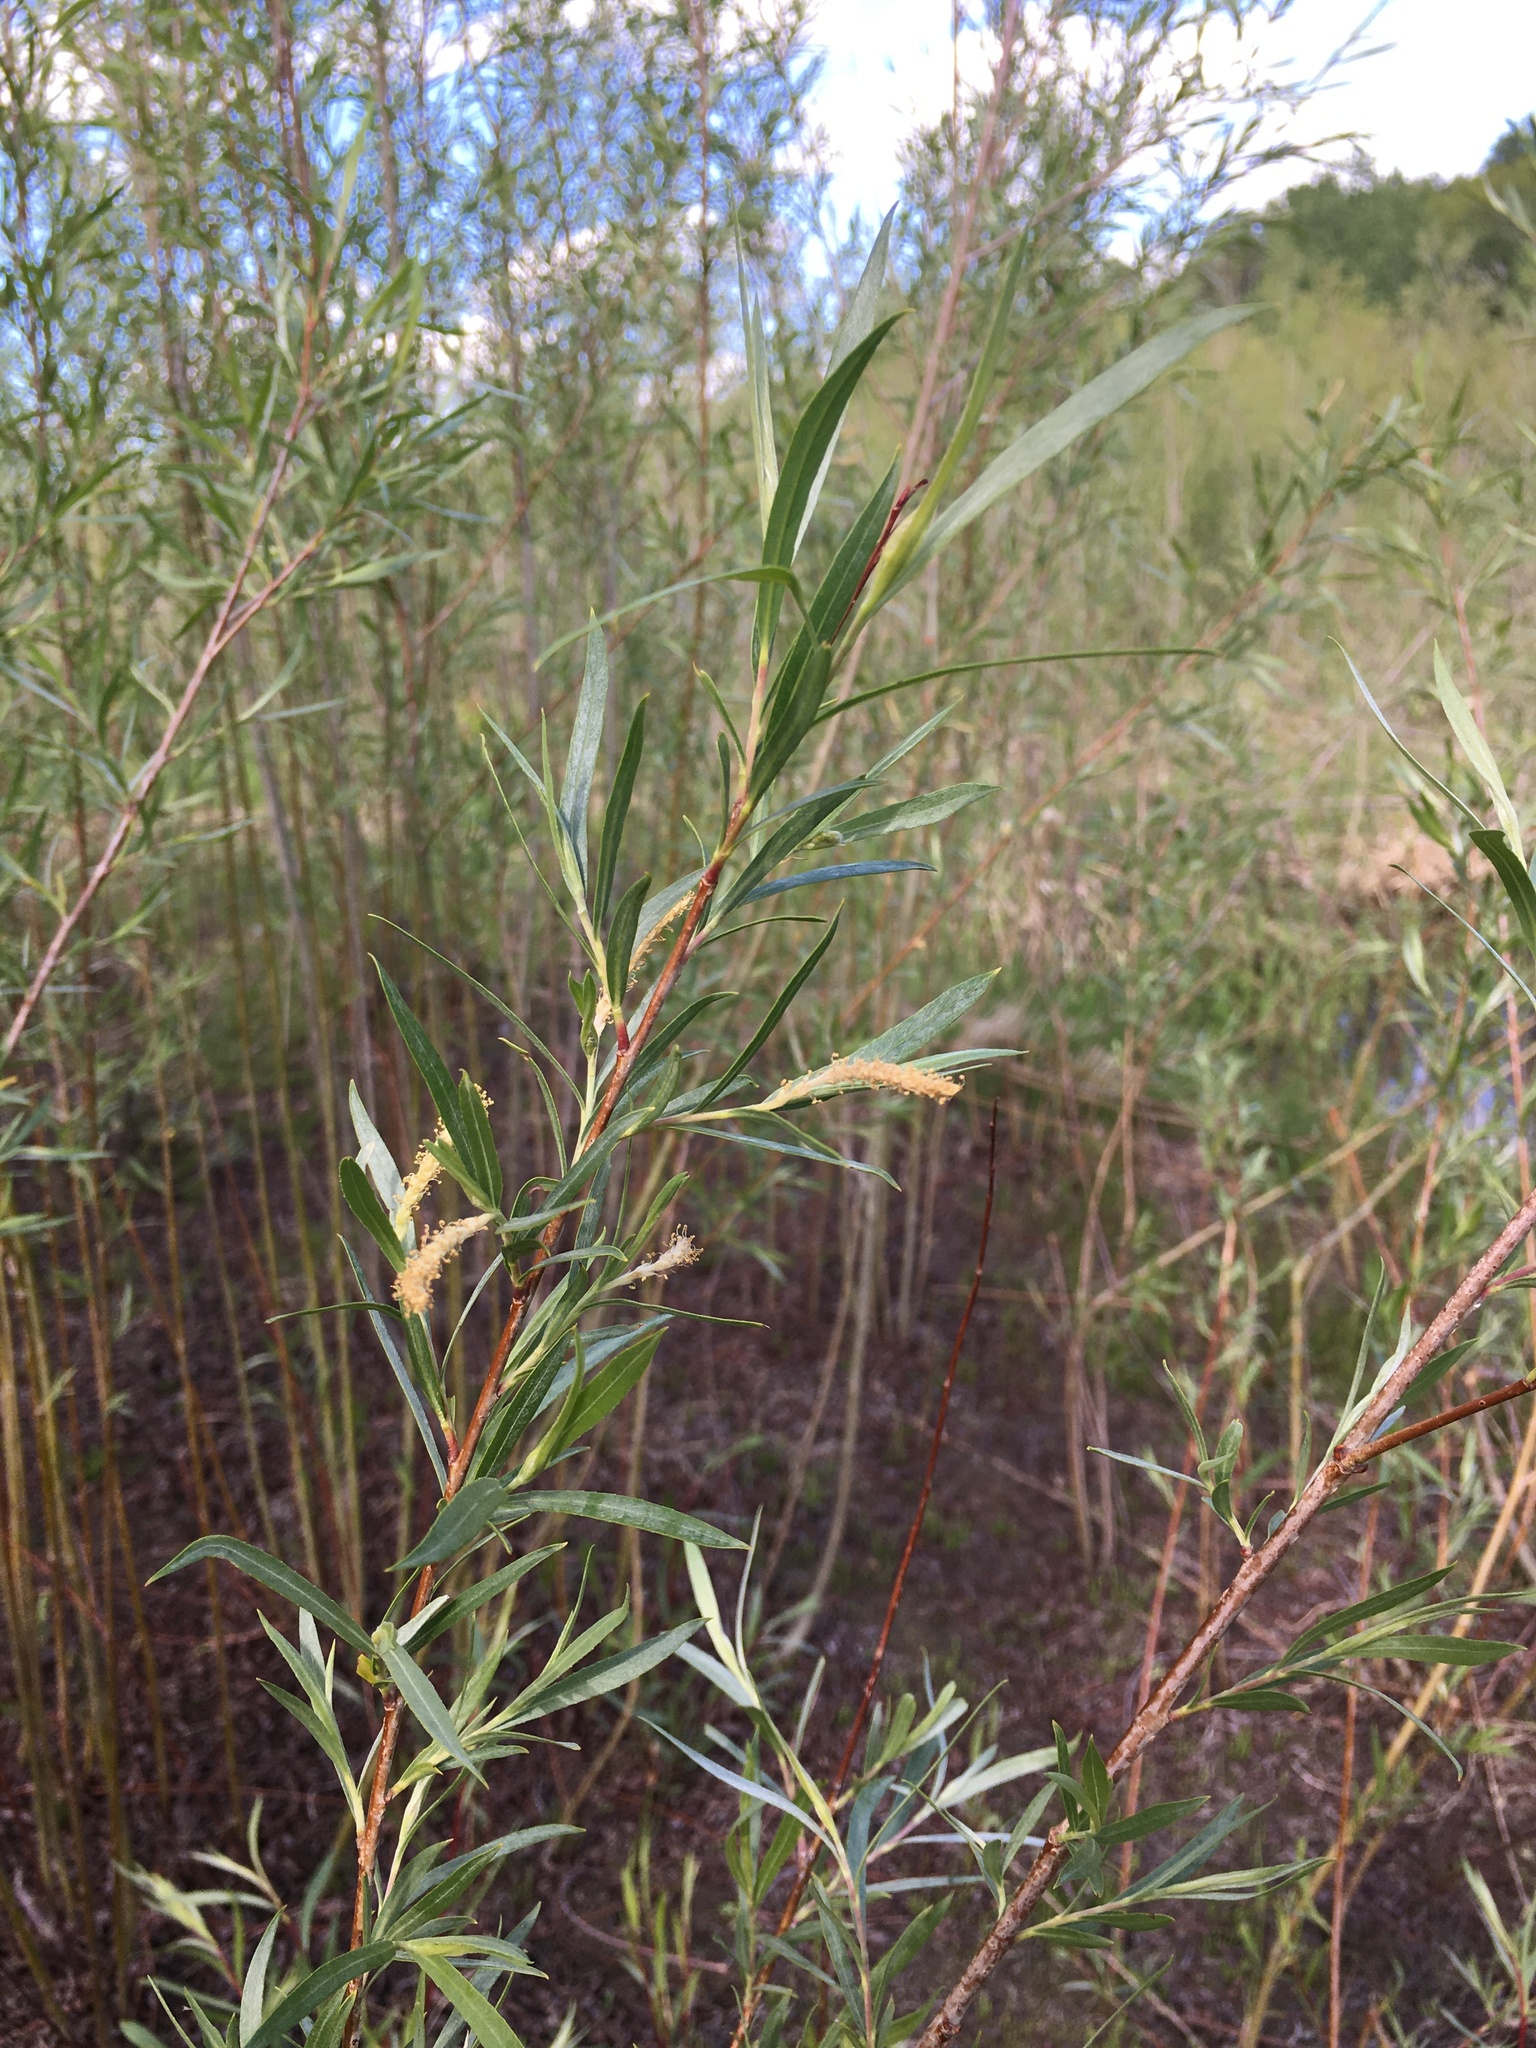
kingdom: Plantae
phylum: Tracheophyta
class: Magnoliopsida
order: Malpighiales
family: Salicaceae
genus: Salix
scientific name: Salix interior
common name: Sandbar willow
